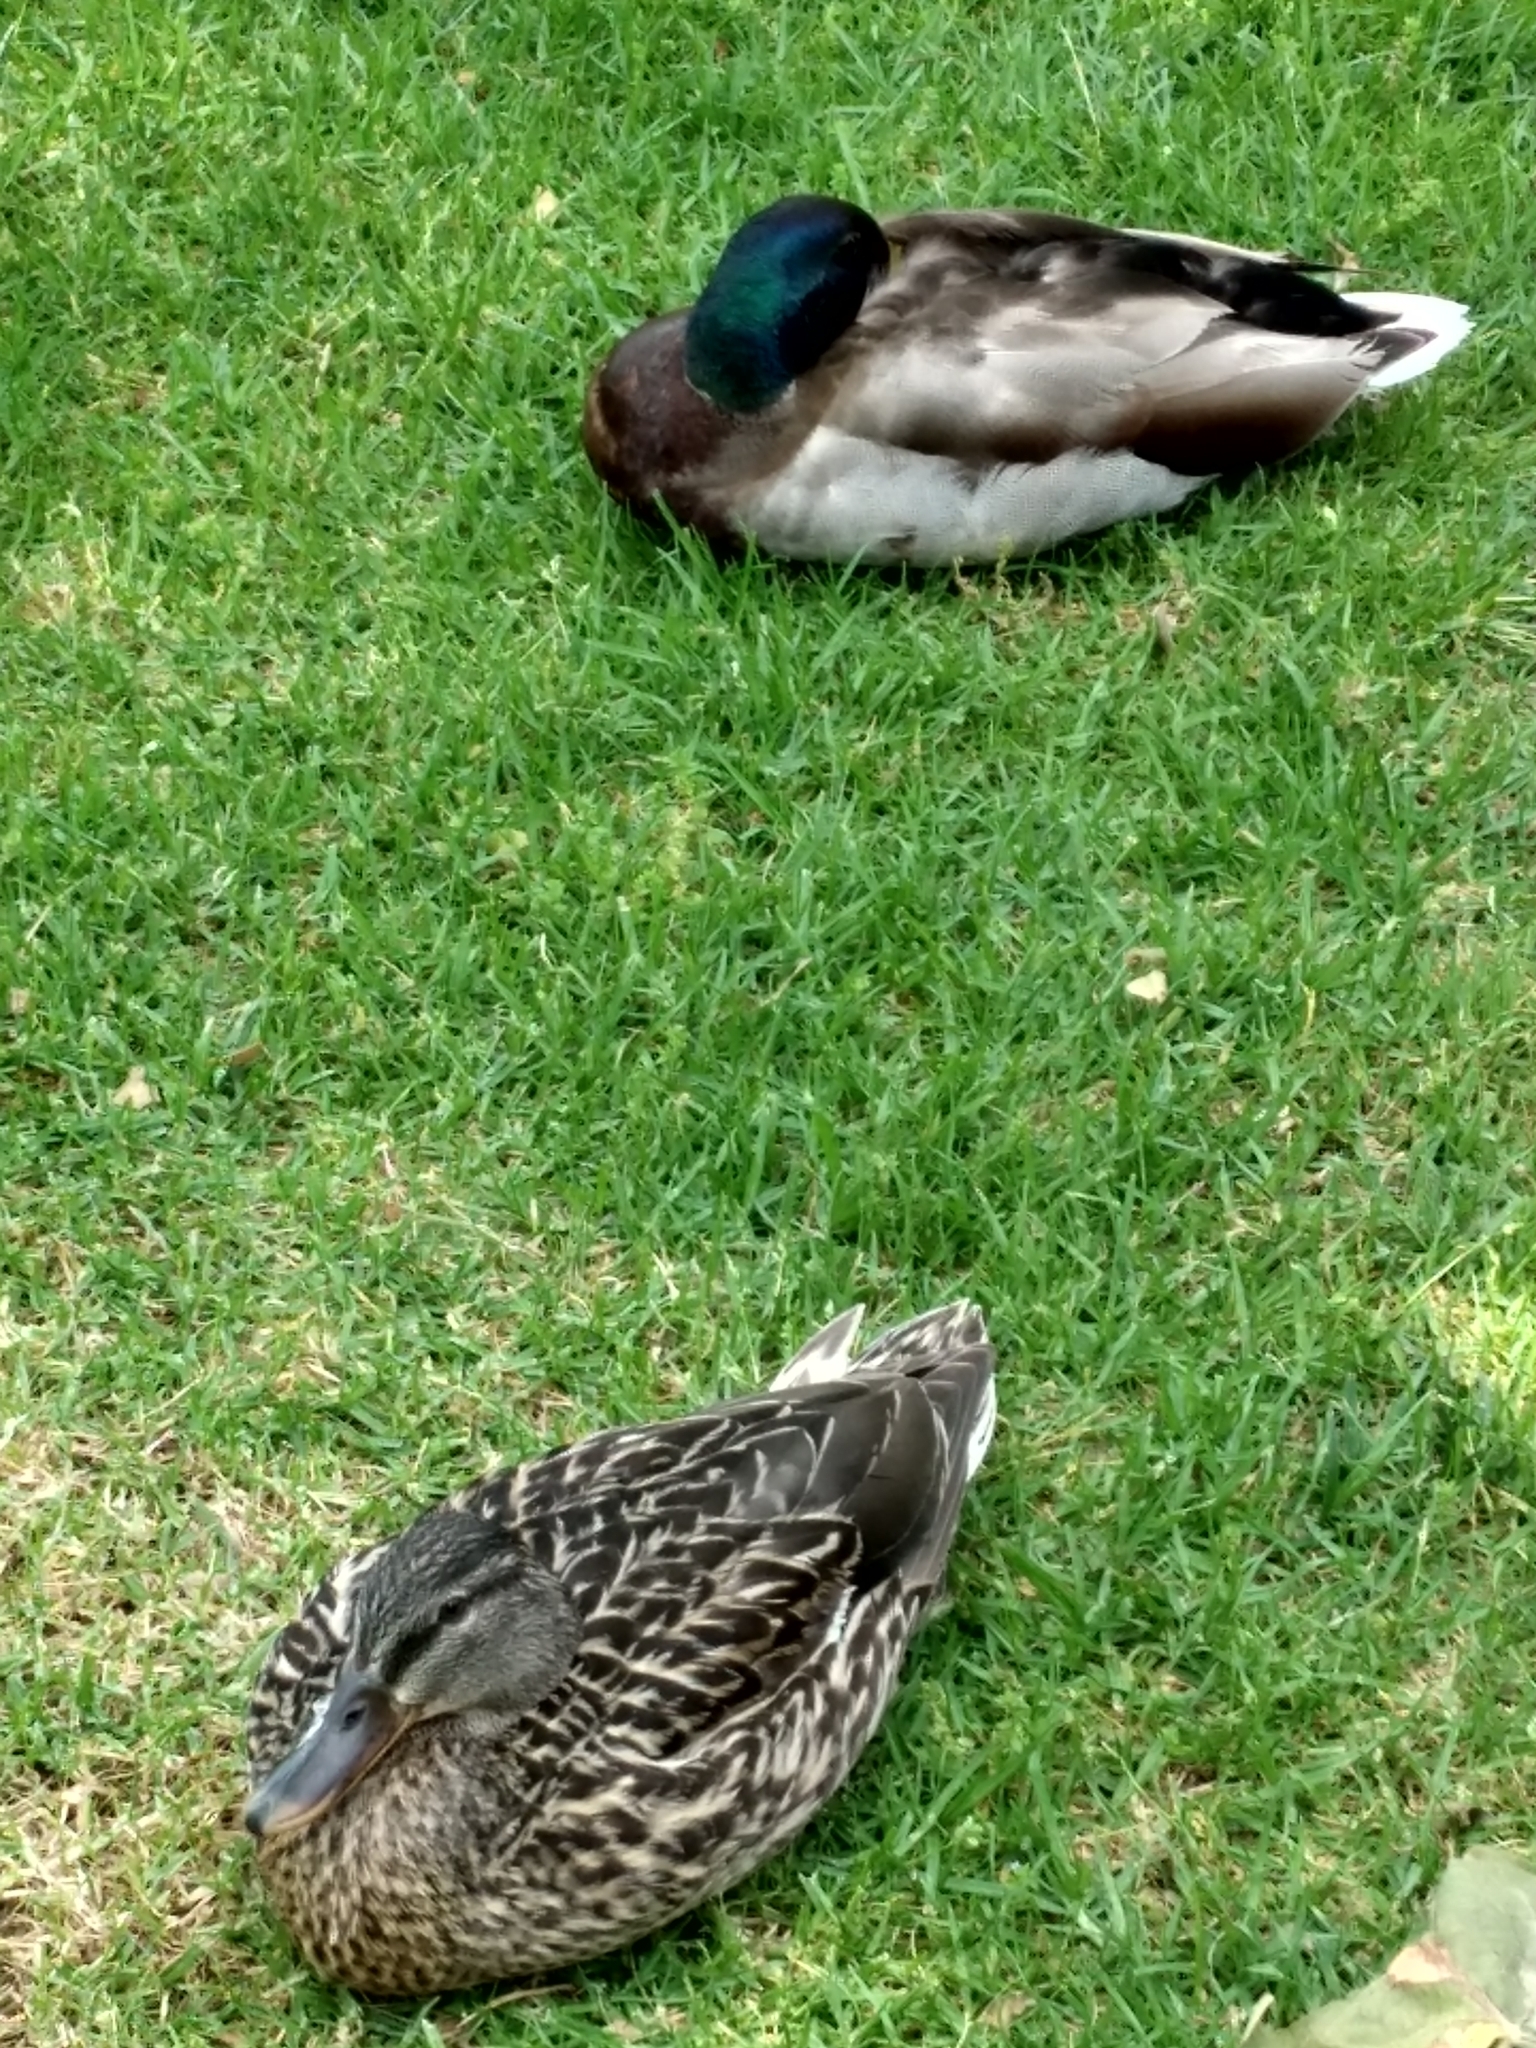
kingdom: Animalia
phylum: Chordata
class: Aves
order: Anseriformes
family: Anatidae
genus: Anas
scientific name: Anas platyrhynchos
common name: Mallard
